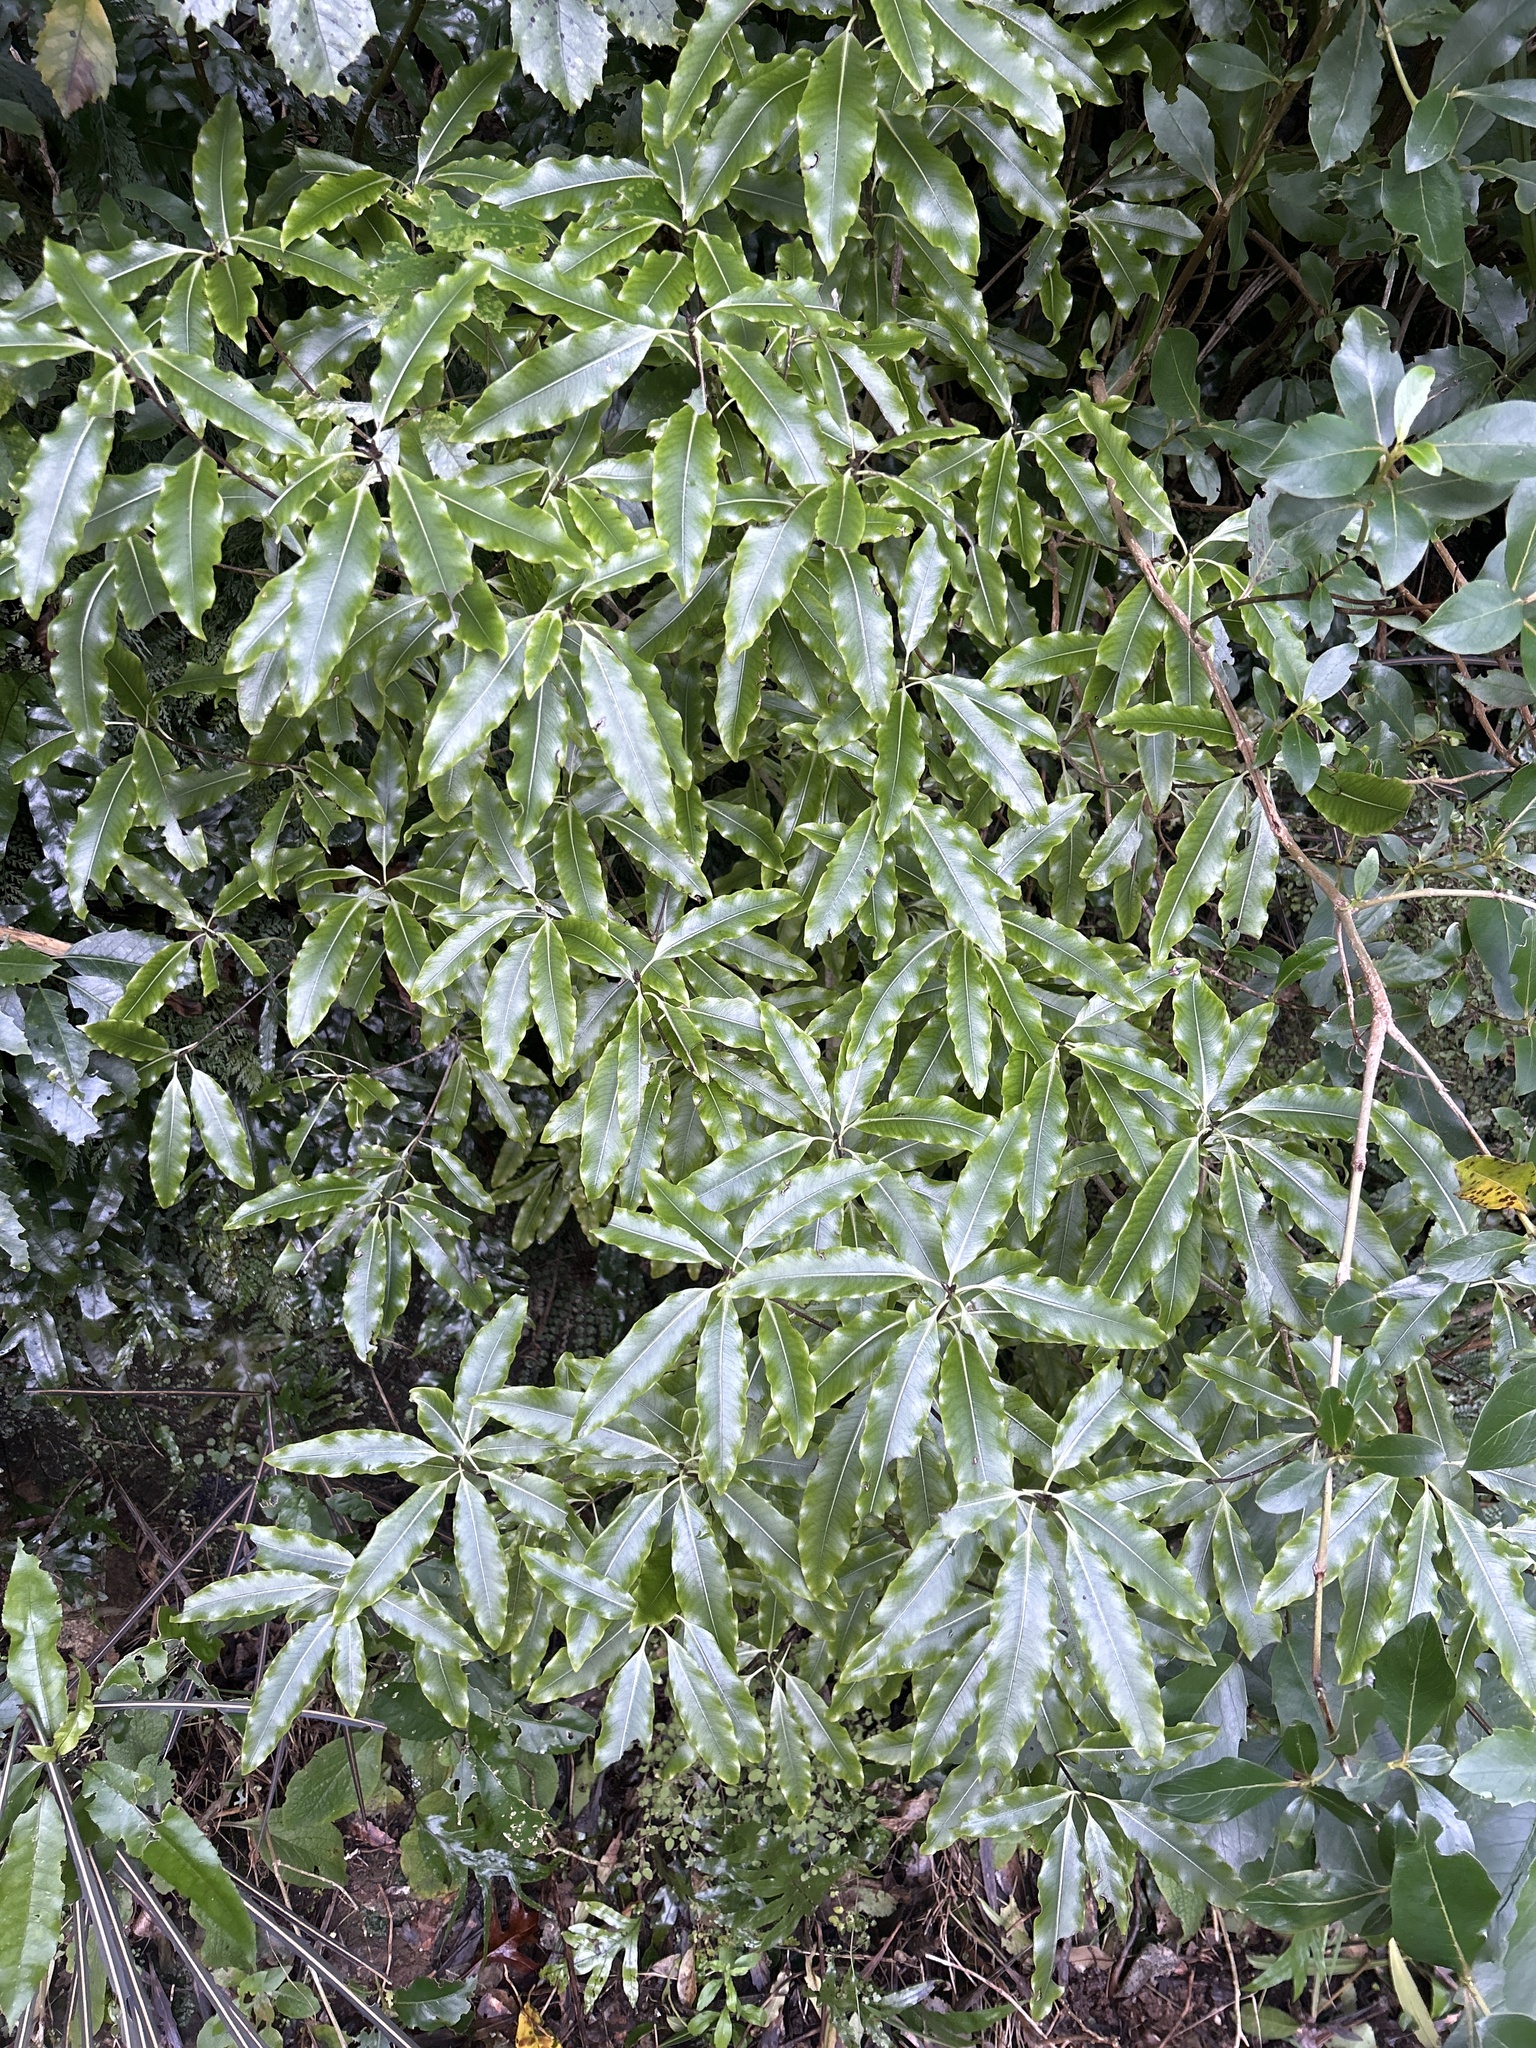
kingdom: Plantae
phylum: Tracheophyta
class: Magnoliopsida
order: Apiales
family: Pittosporaceae
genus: Pittosporum
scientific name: Pittosporum eugenioides
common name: Lemonwood
